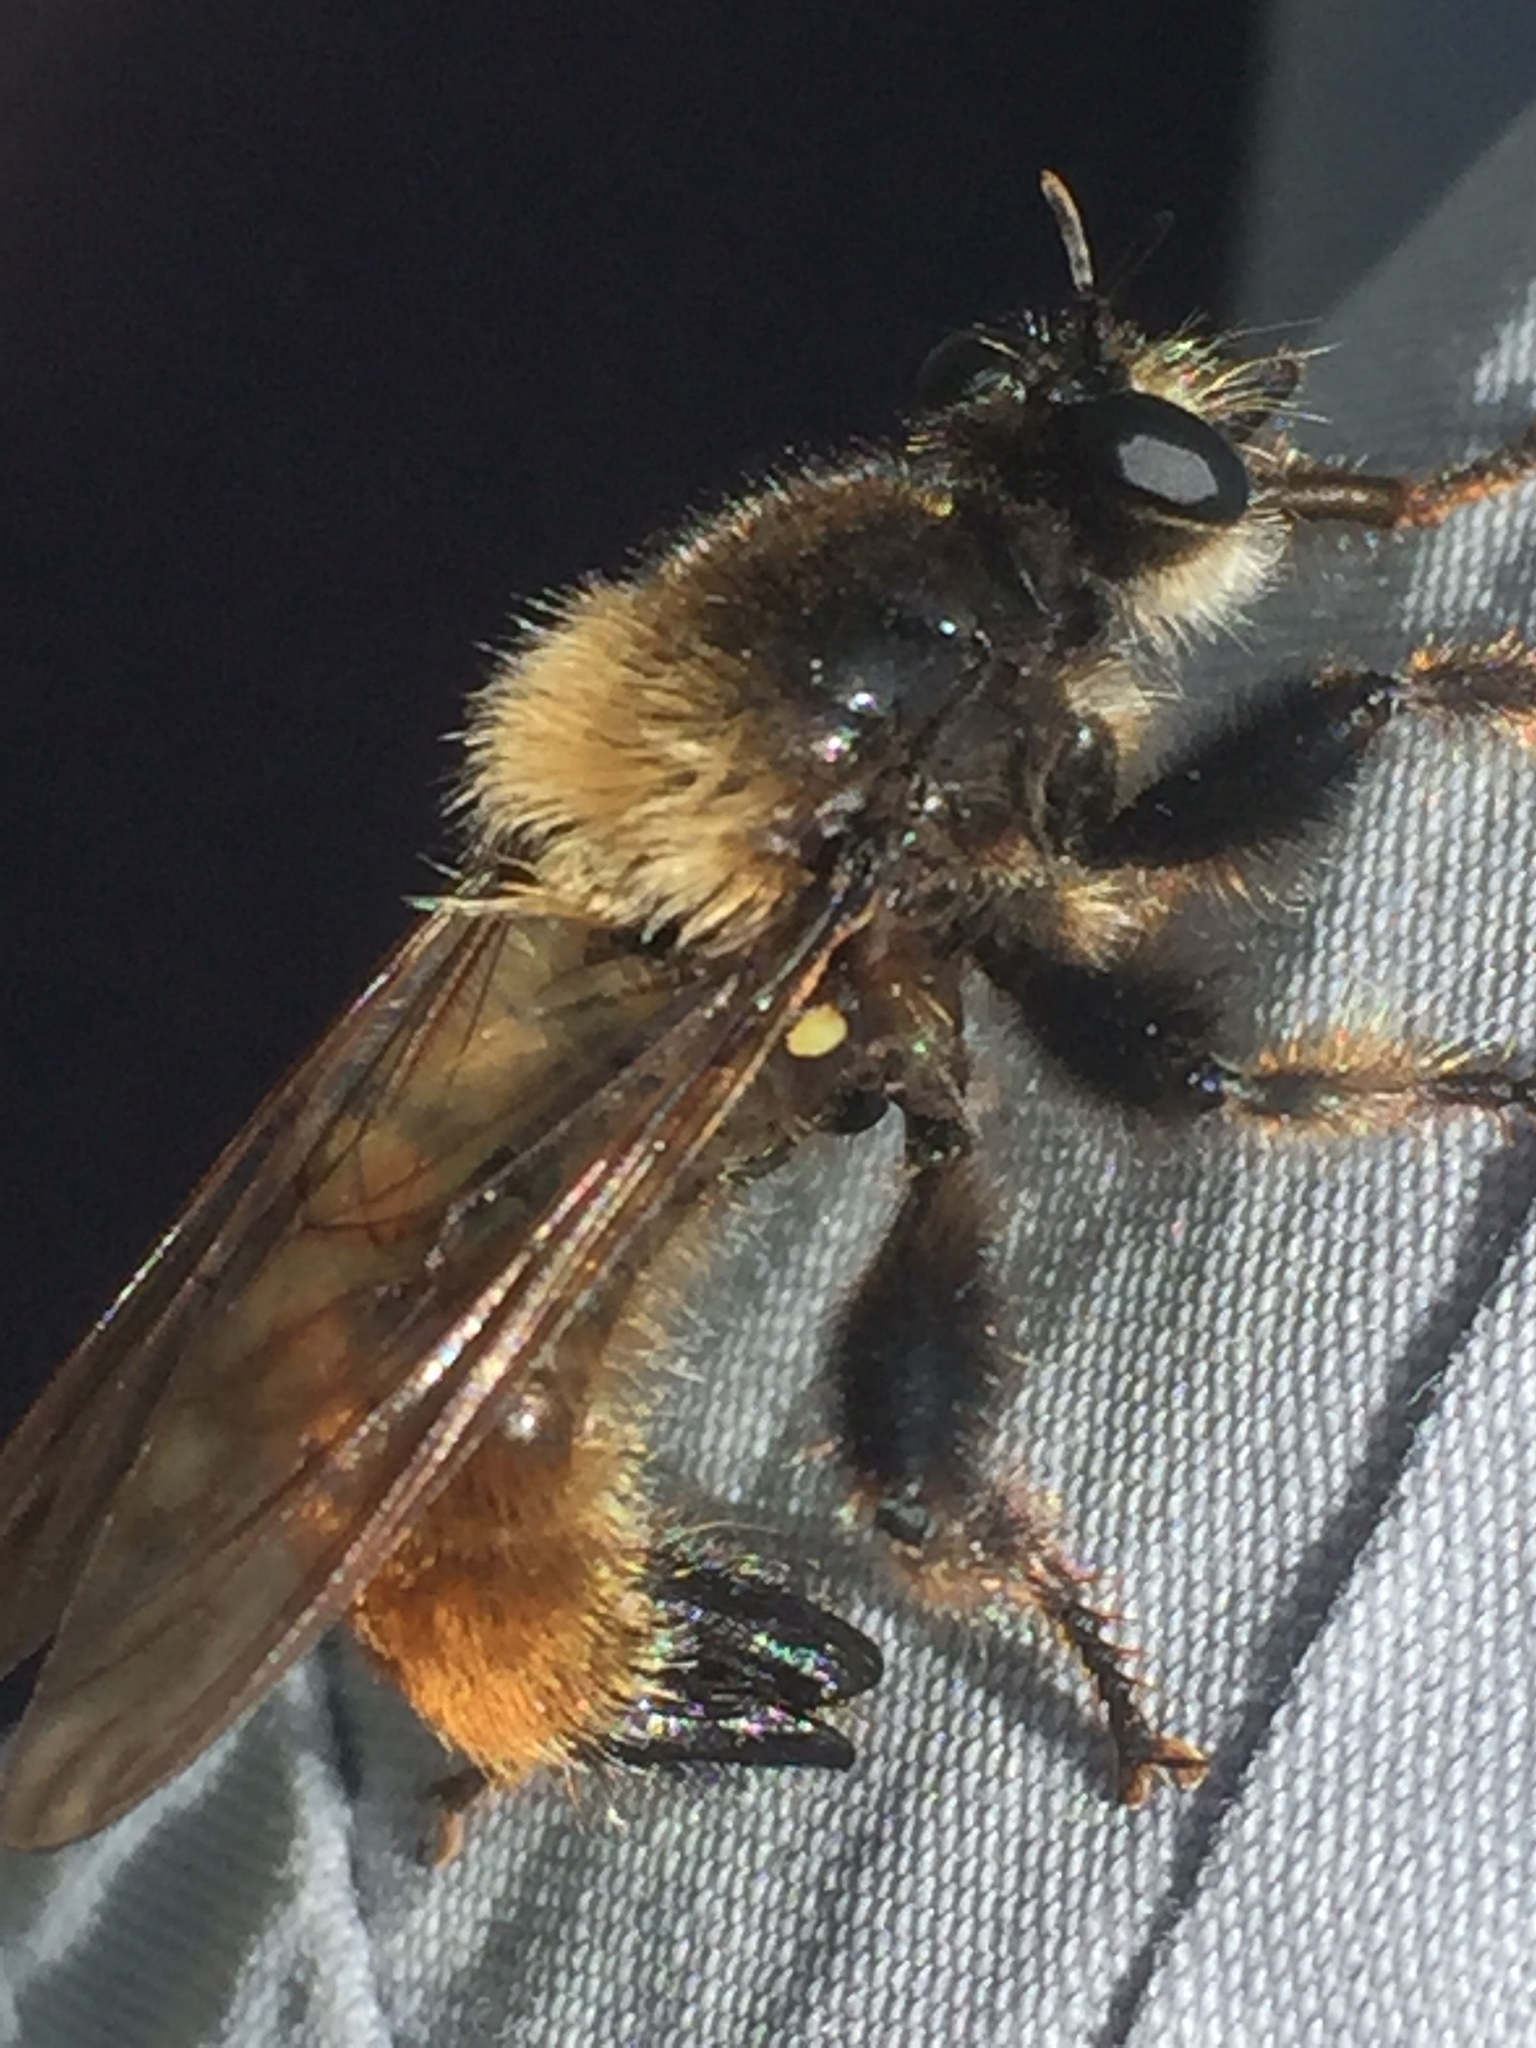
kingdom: Animalia
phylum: Arthropoda
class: Insecta
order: Diptera
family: Asilidae
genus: Laphria
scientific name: Laphria flava
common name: Bumblebee robberfly
